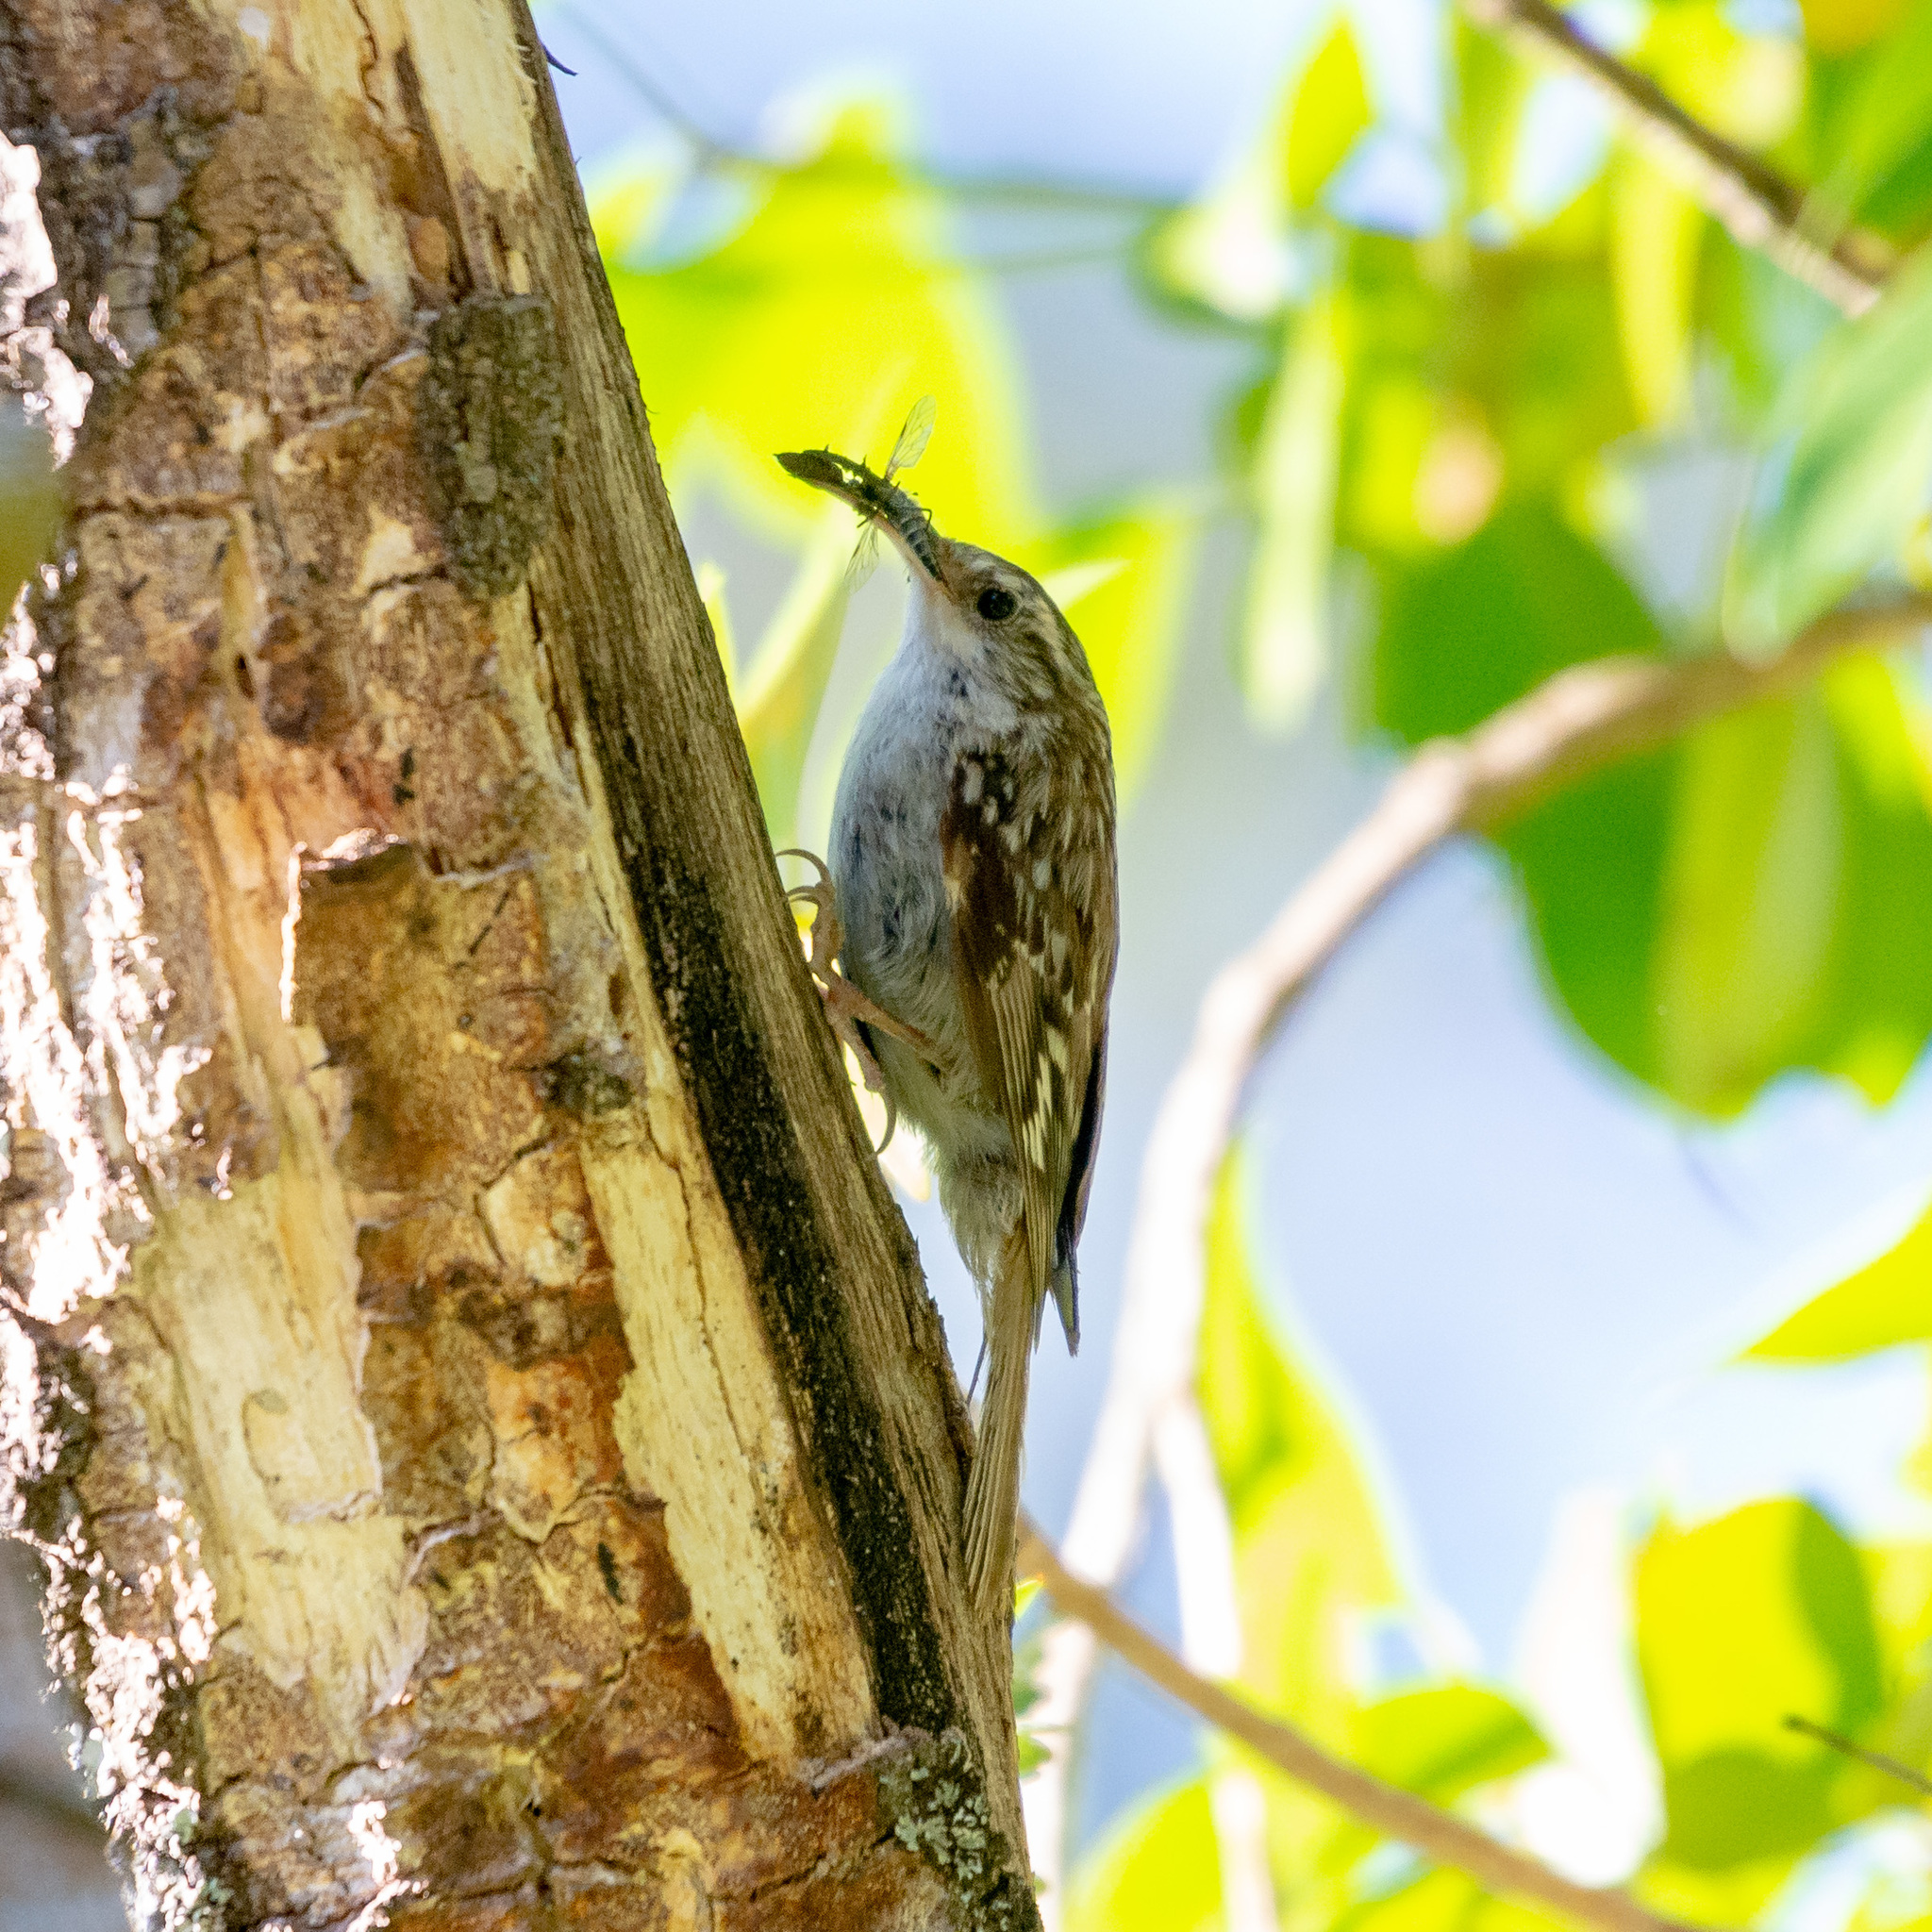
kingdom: Animalia
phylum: Chordata
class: Aves
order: Passeriformes
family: Certhiidae
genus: Certhia
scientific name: Certhia brachydactyla
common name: Short-toed treecreeper
